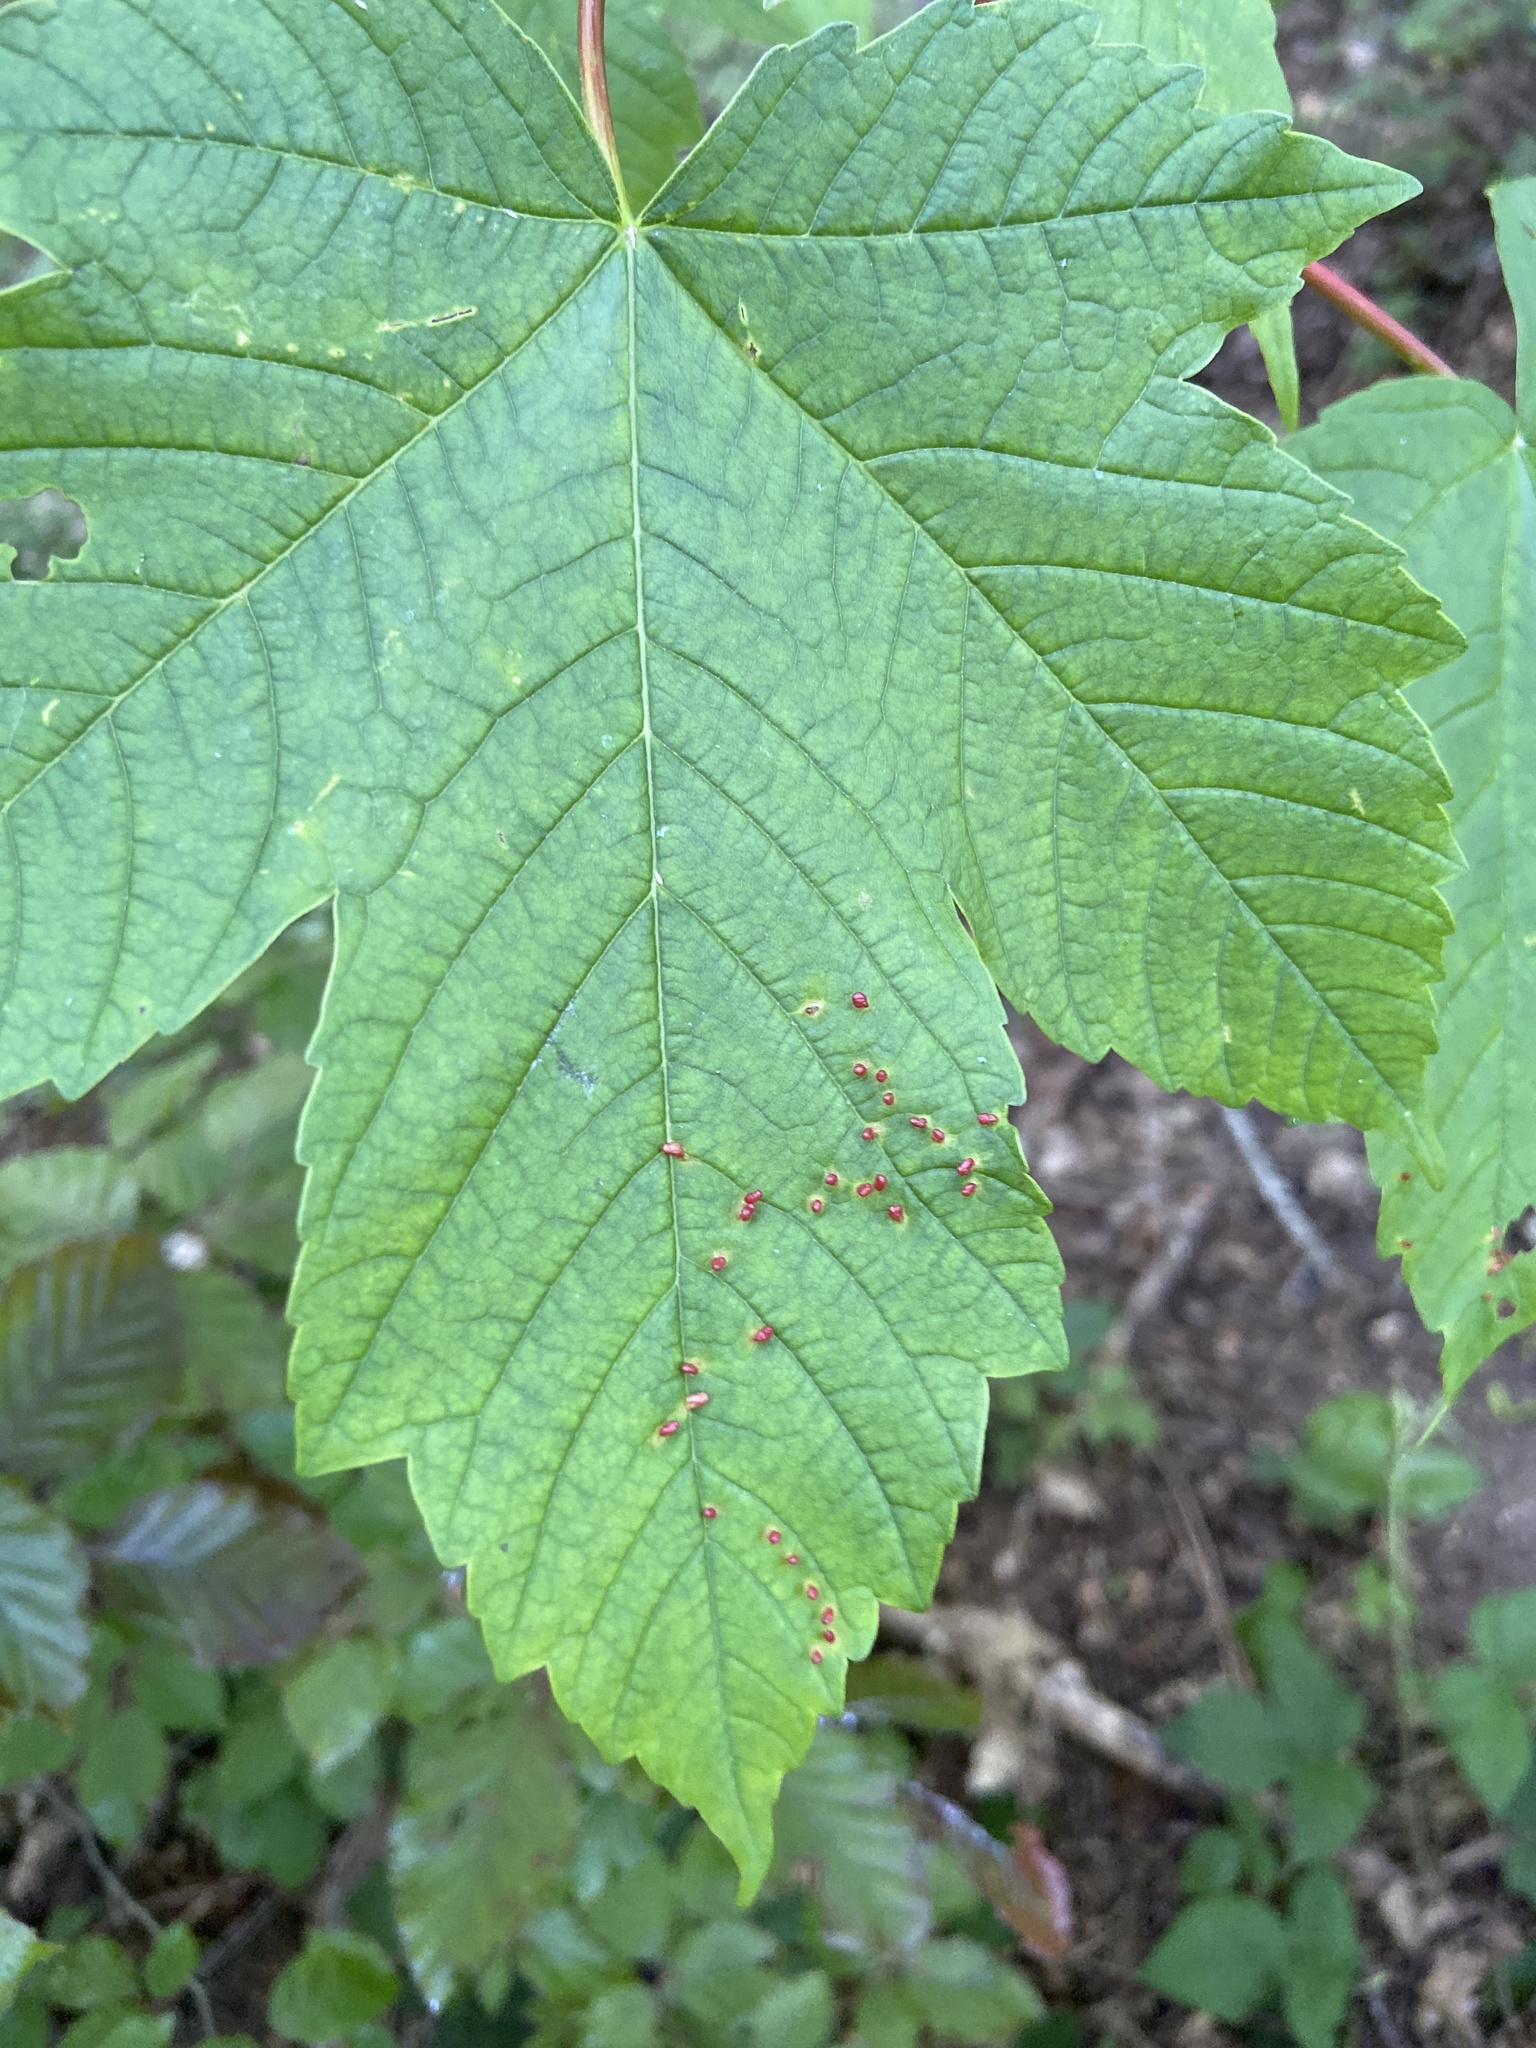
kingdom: Animalia
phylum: Arthropoda
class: Arachnida
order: Trombidiformes
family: Eriophyidae
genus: Aceria
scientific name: Aceria cephaloneus
